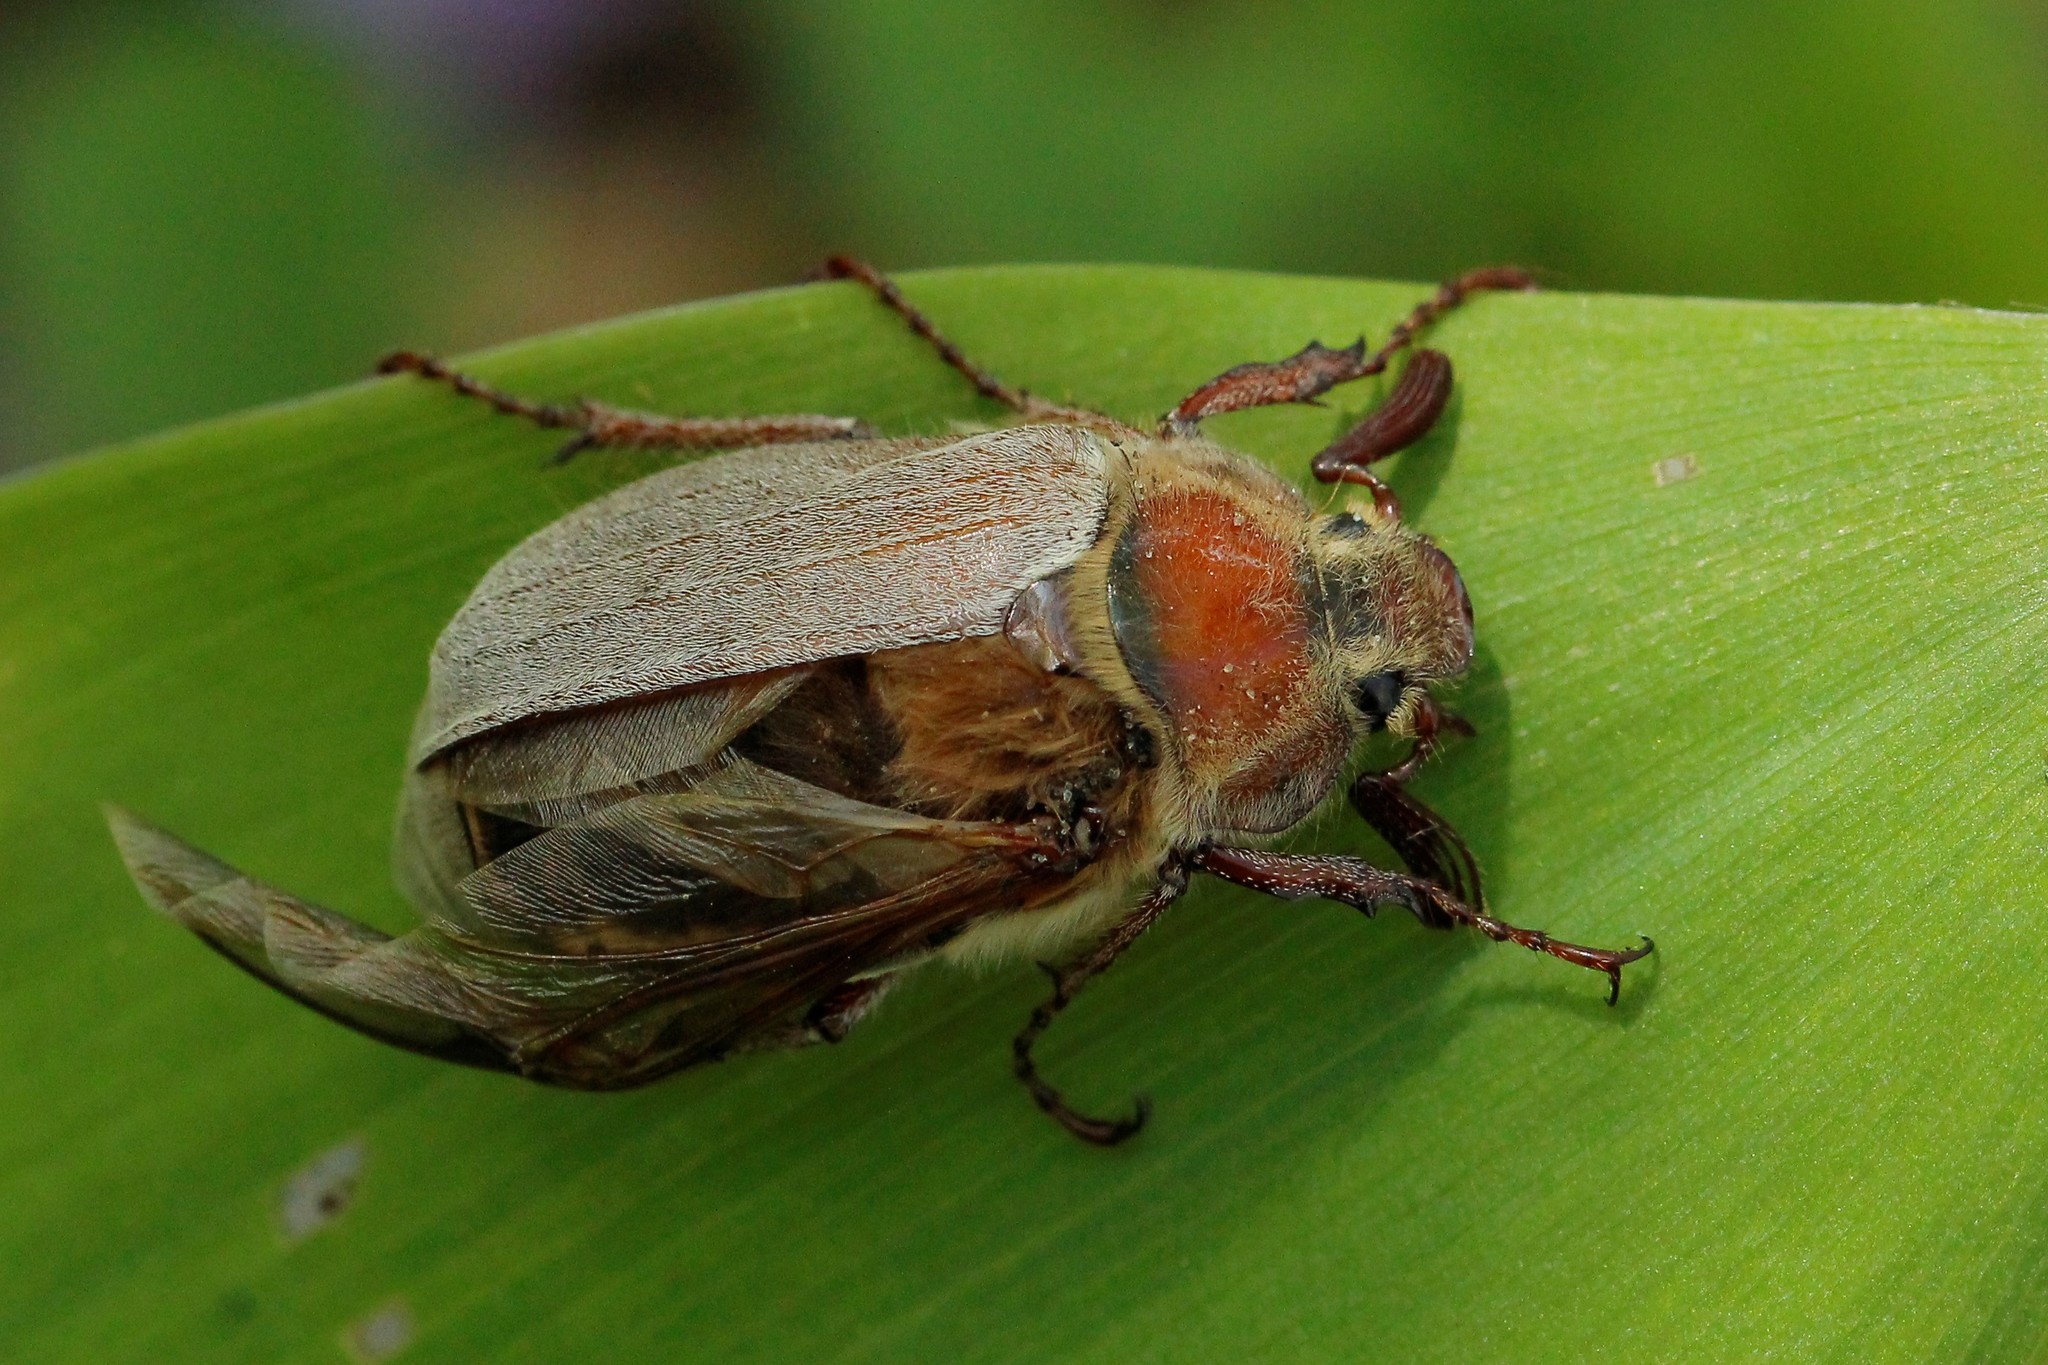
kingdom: Animalia
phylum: Arthropoda
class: Insecta
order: Coleoptera
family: Scarabaeidae
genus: Melolontha
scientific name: Melolontha hippocastani
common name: Chestnut cockchafer
